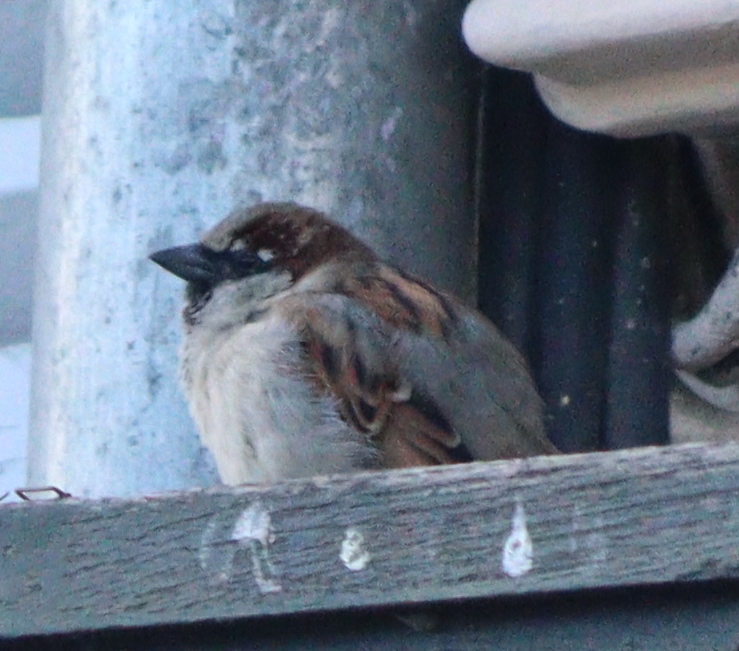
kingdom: Animalia
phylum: Chordata
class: Aves
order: Passeriformes
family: Passeridae
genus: Passer
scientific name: Passer domesticus
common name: House sparrow
